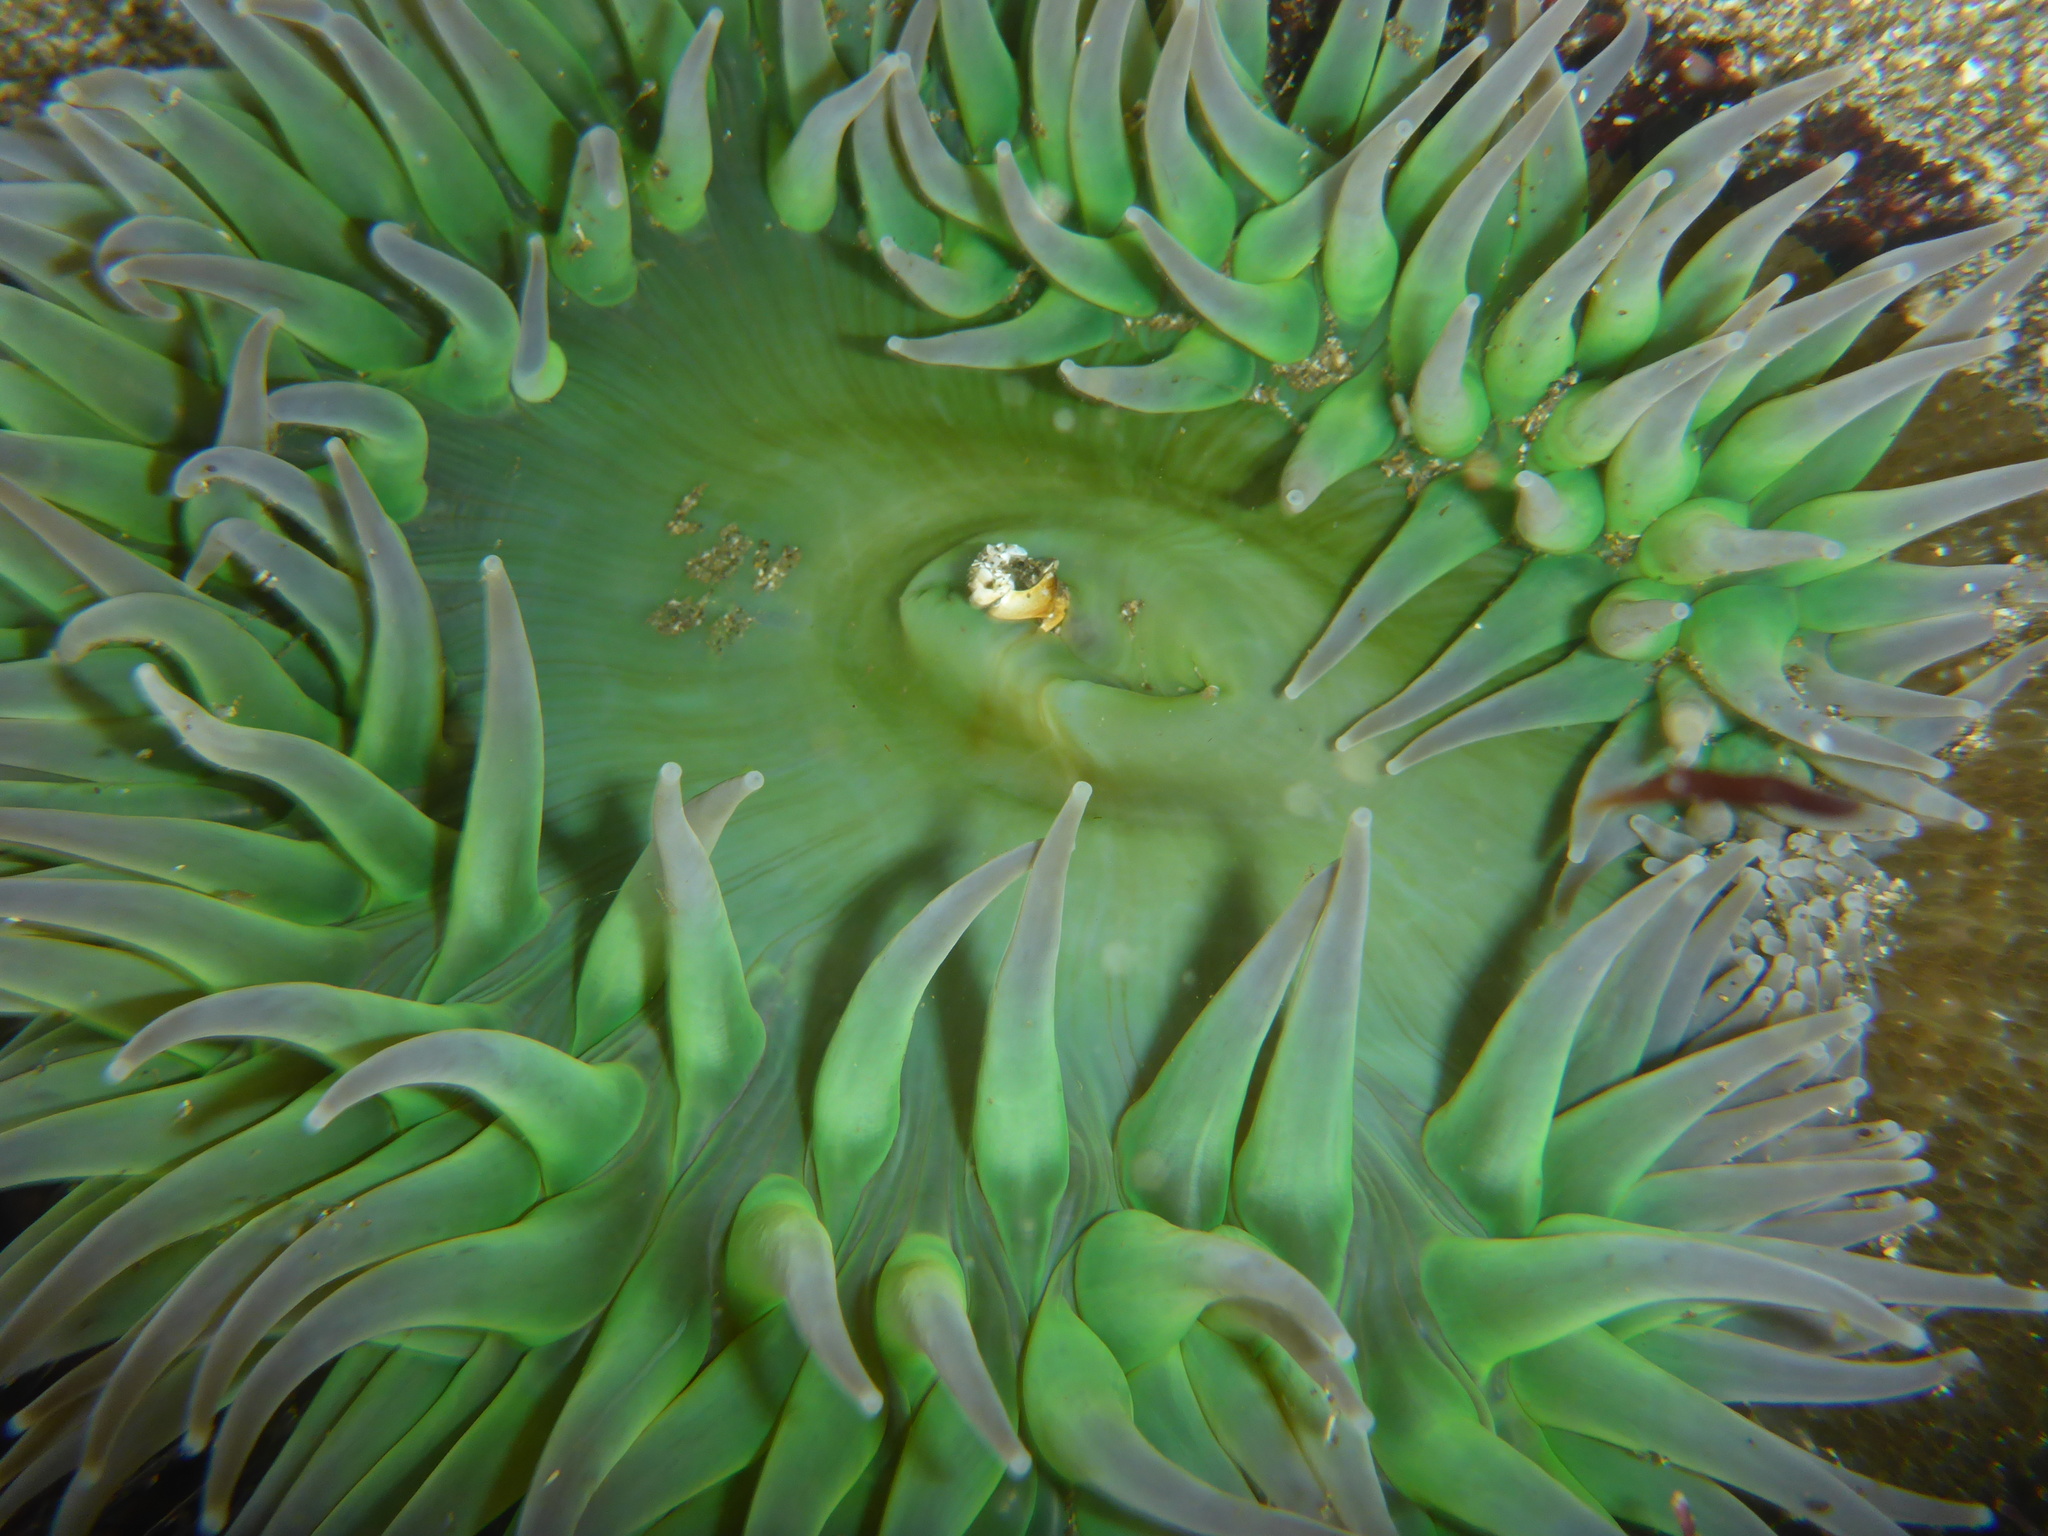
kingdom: Animalia
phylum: Cnidaria
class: Anthozoa
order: Actiniaria
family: Actiniidae
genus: Anthopleura
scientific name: Anthopleura xanthogrammica
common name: Giant green anemone
